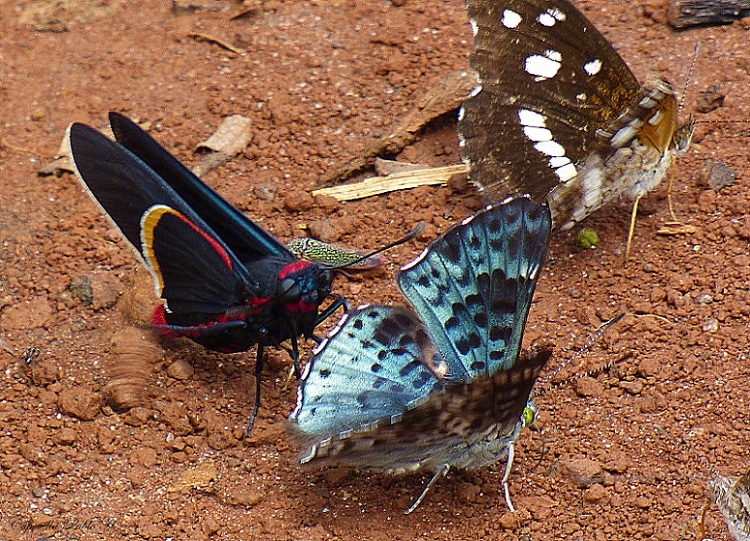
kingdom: Animalia
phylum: Arthropoda
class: Insecta
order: Lepidoptera
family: Hesperiidae
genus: Mysoria
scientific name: Mysoria barcastus
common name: Royal firetip
